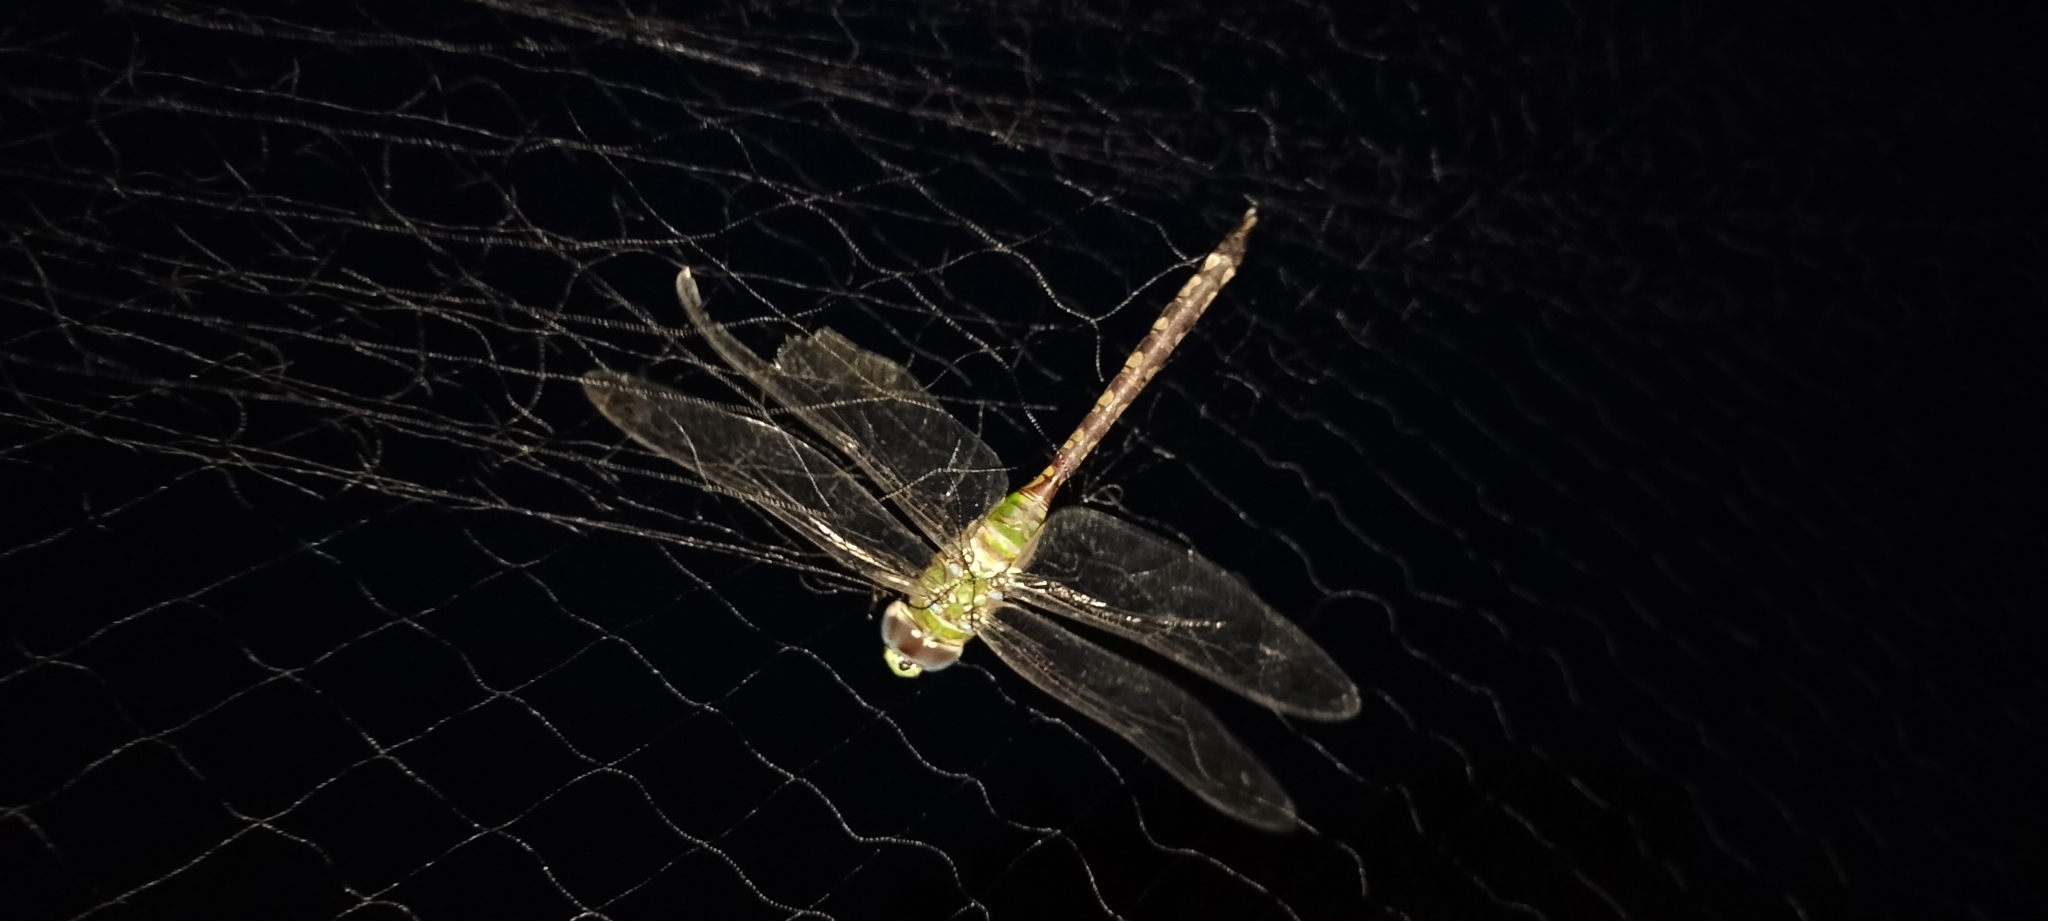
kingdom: Animalia
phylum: Arthropoda
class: Insecta
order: Odonata
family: Aeshnidae
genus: Anax
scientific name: Anax amazili
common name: Amazon darner
